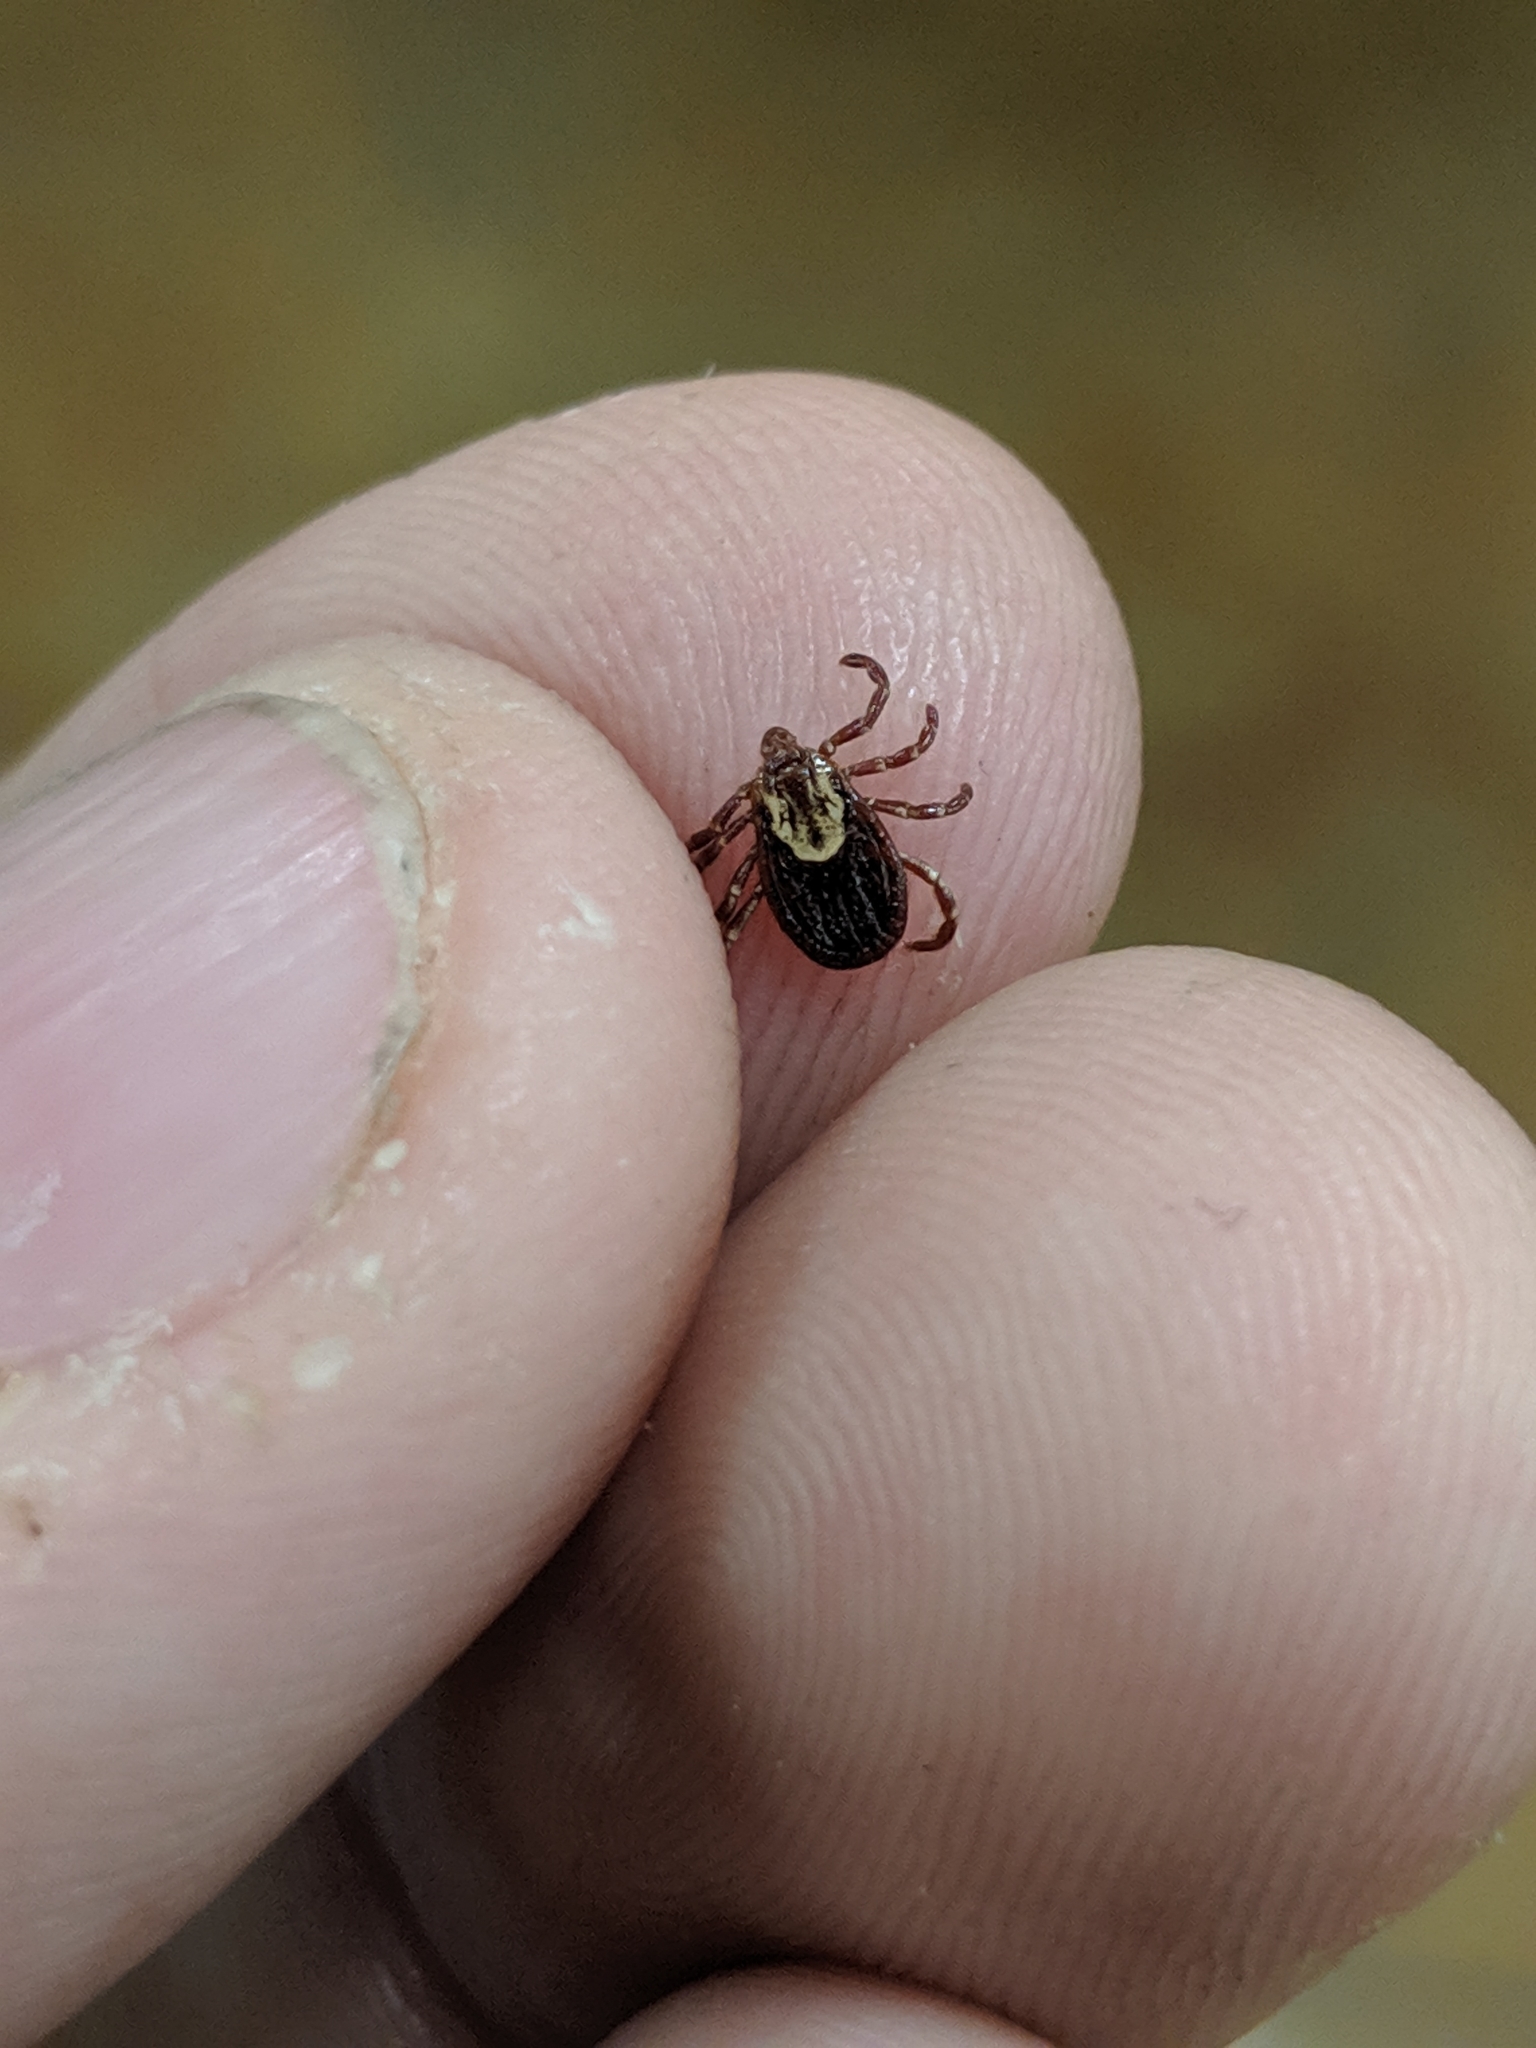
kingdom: Animalia
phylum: Arthropoda
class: Arachnida
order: Ixodida
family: Ixodidae
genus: Dermacentor
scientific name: Dermacentor variabilis
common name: American dog tick
